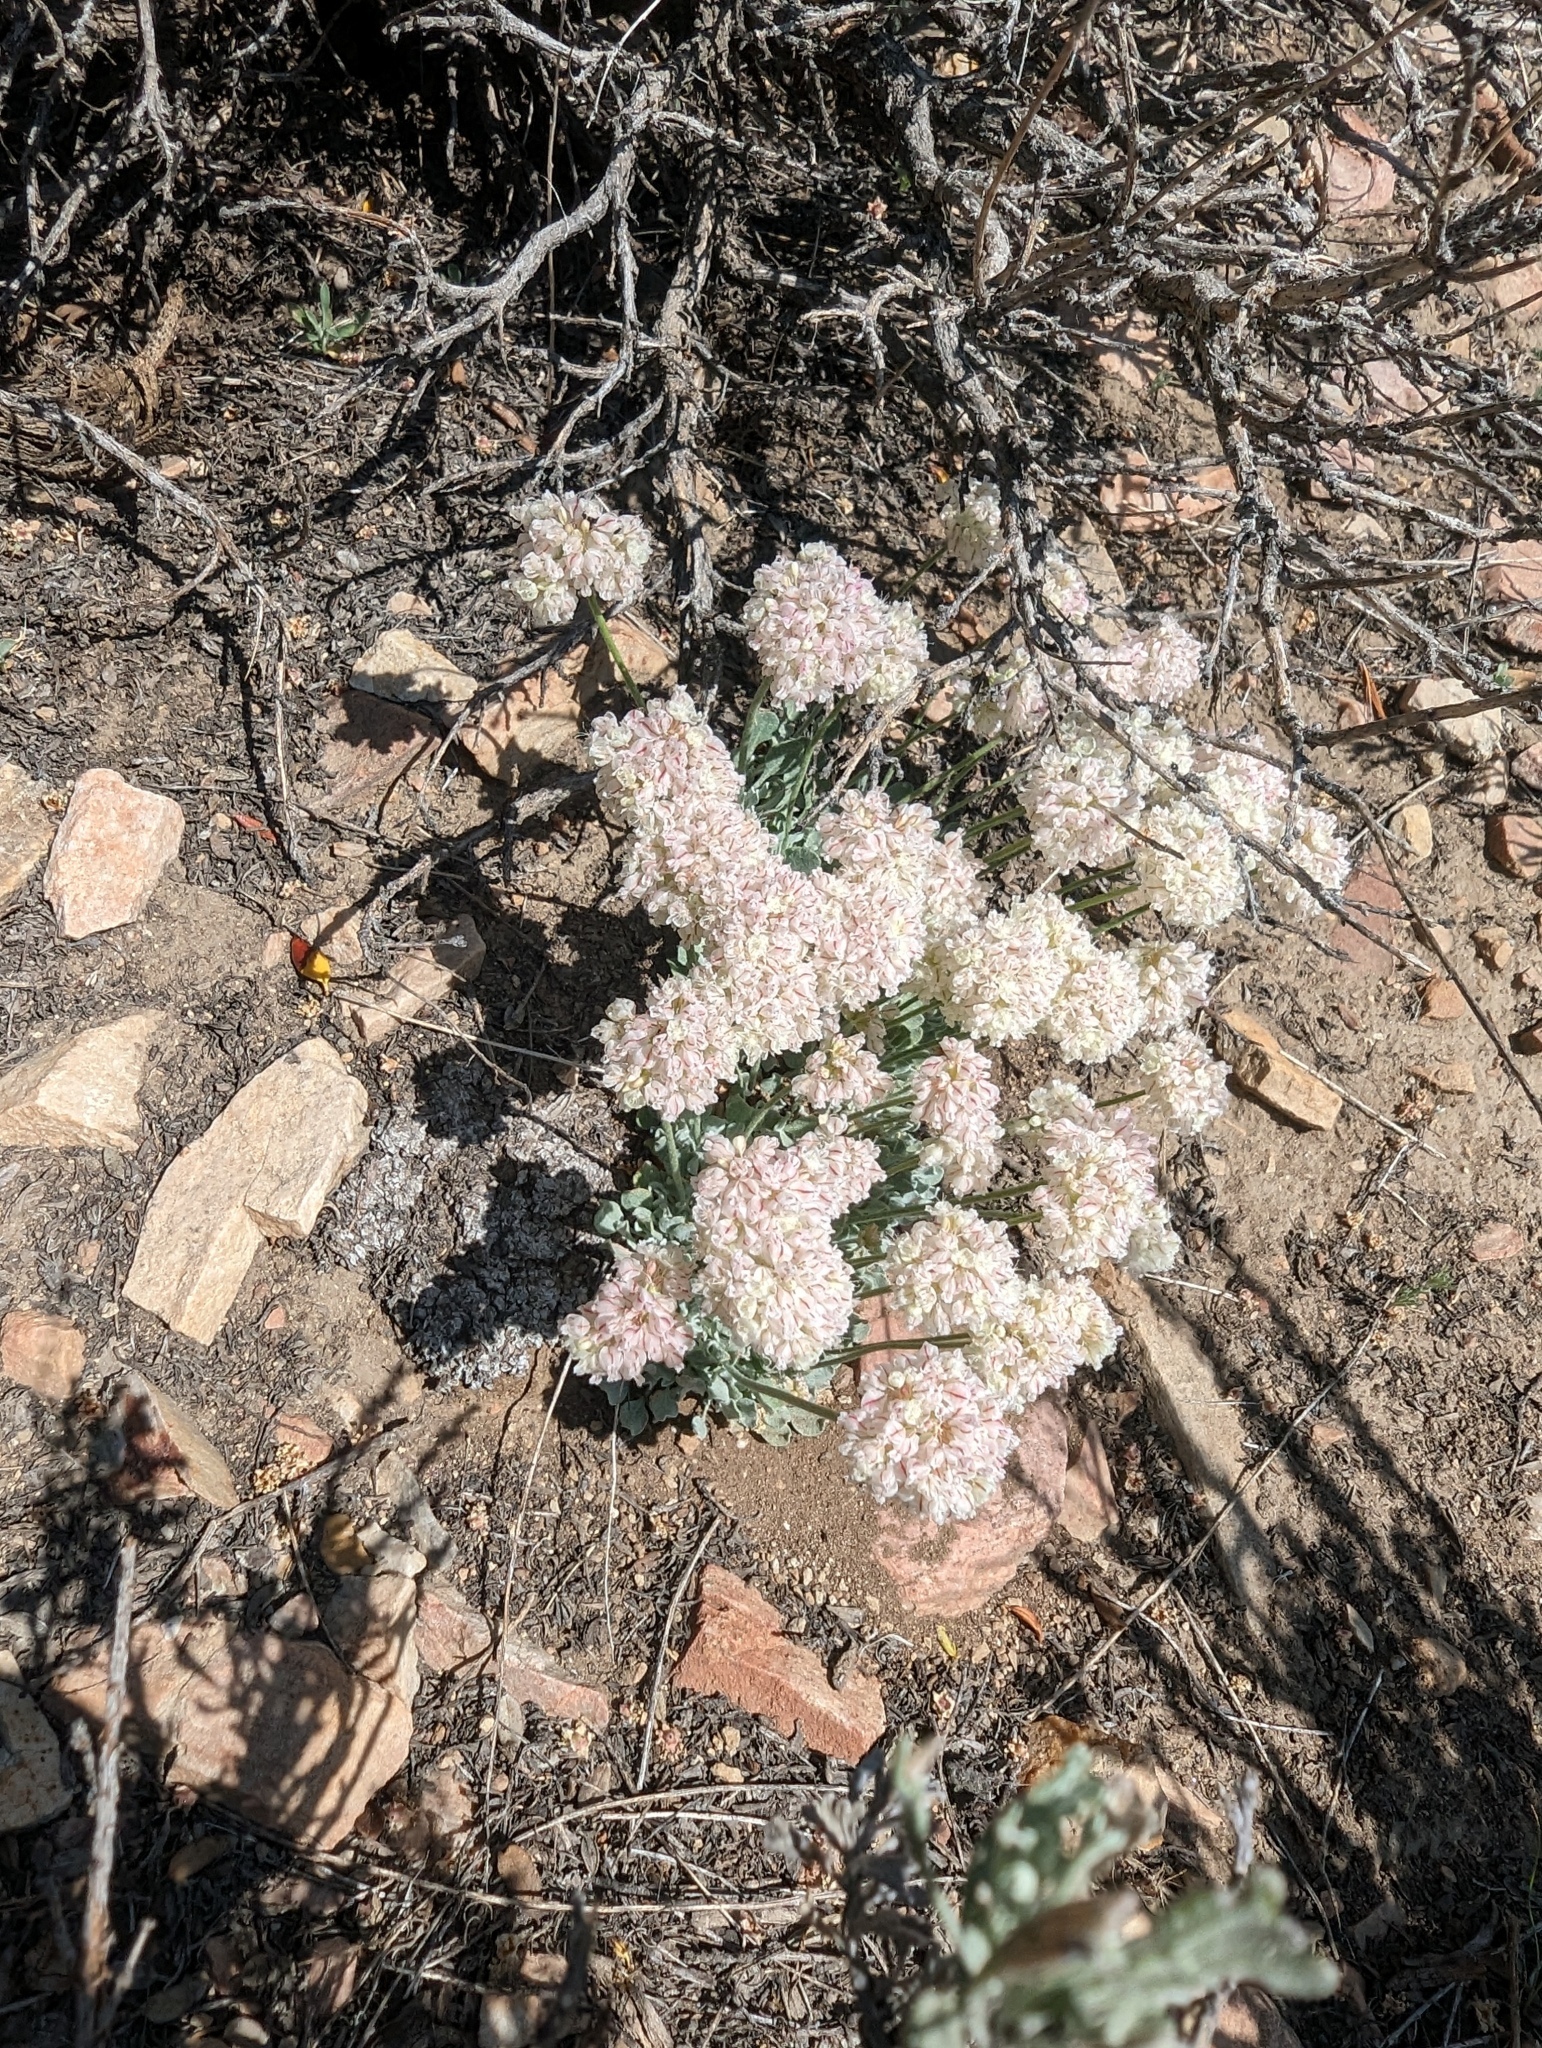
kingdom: Plantae
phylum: Tracheophyta
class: Magnoliopsida
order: Caryophyllales
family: Polygonaceae
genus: Eriogonum
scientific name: Eriogonum ovalifolium
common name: Cushion buckwheat
